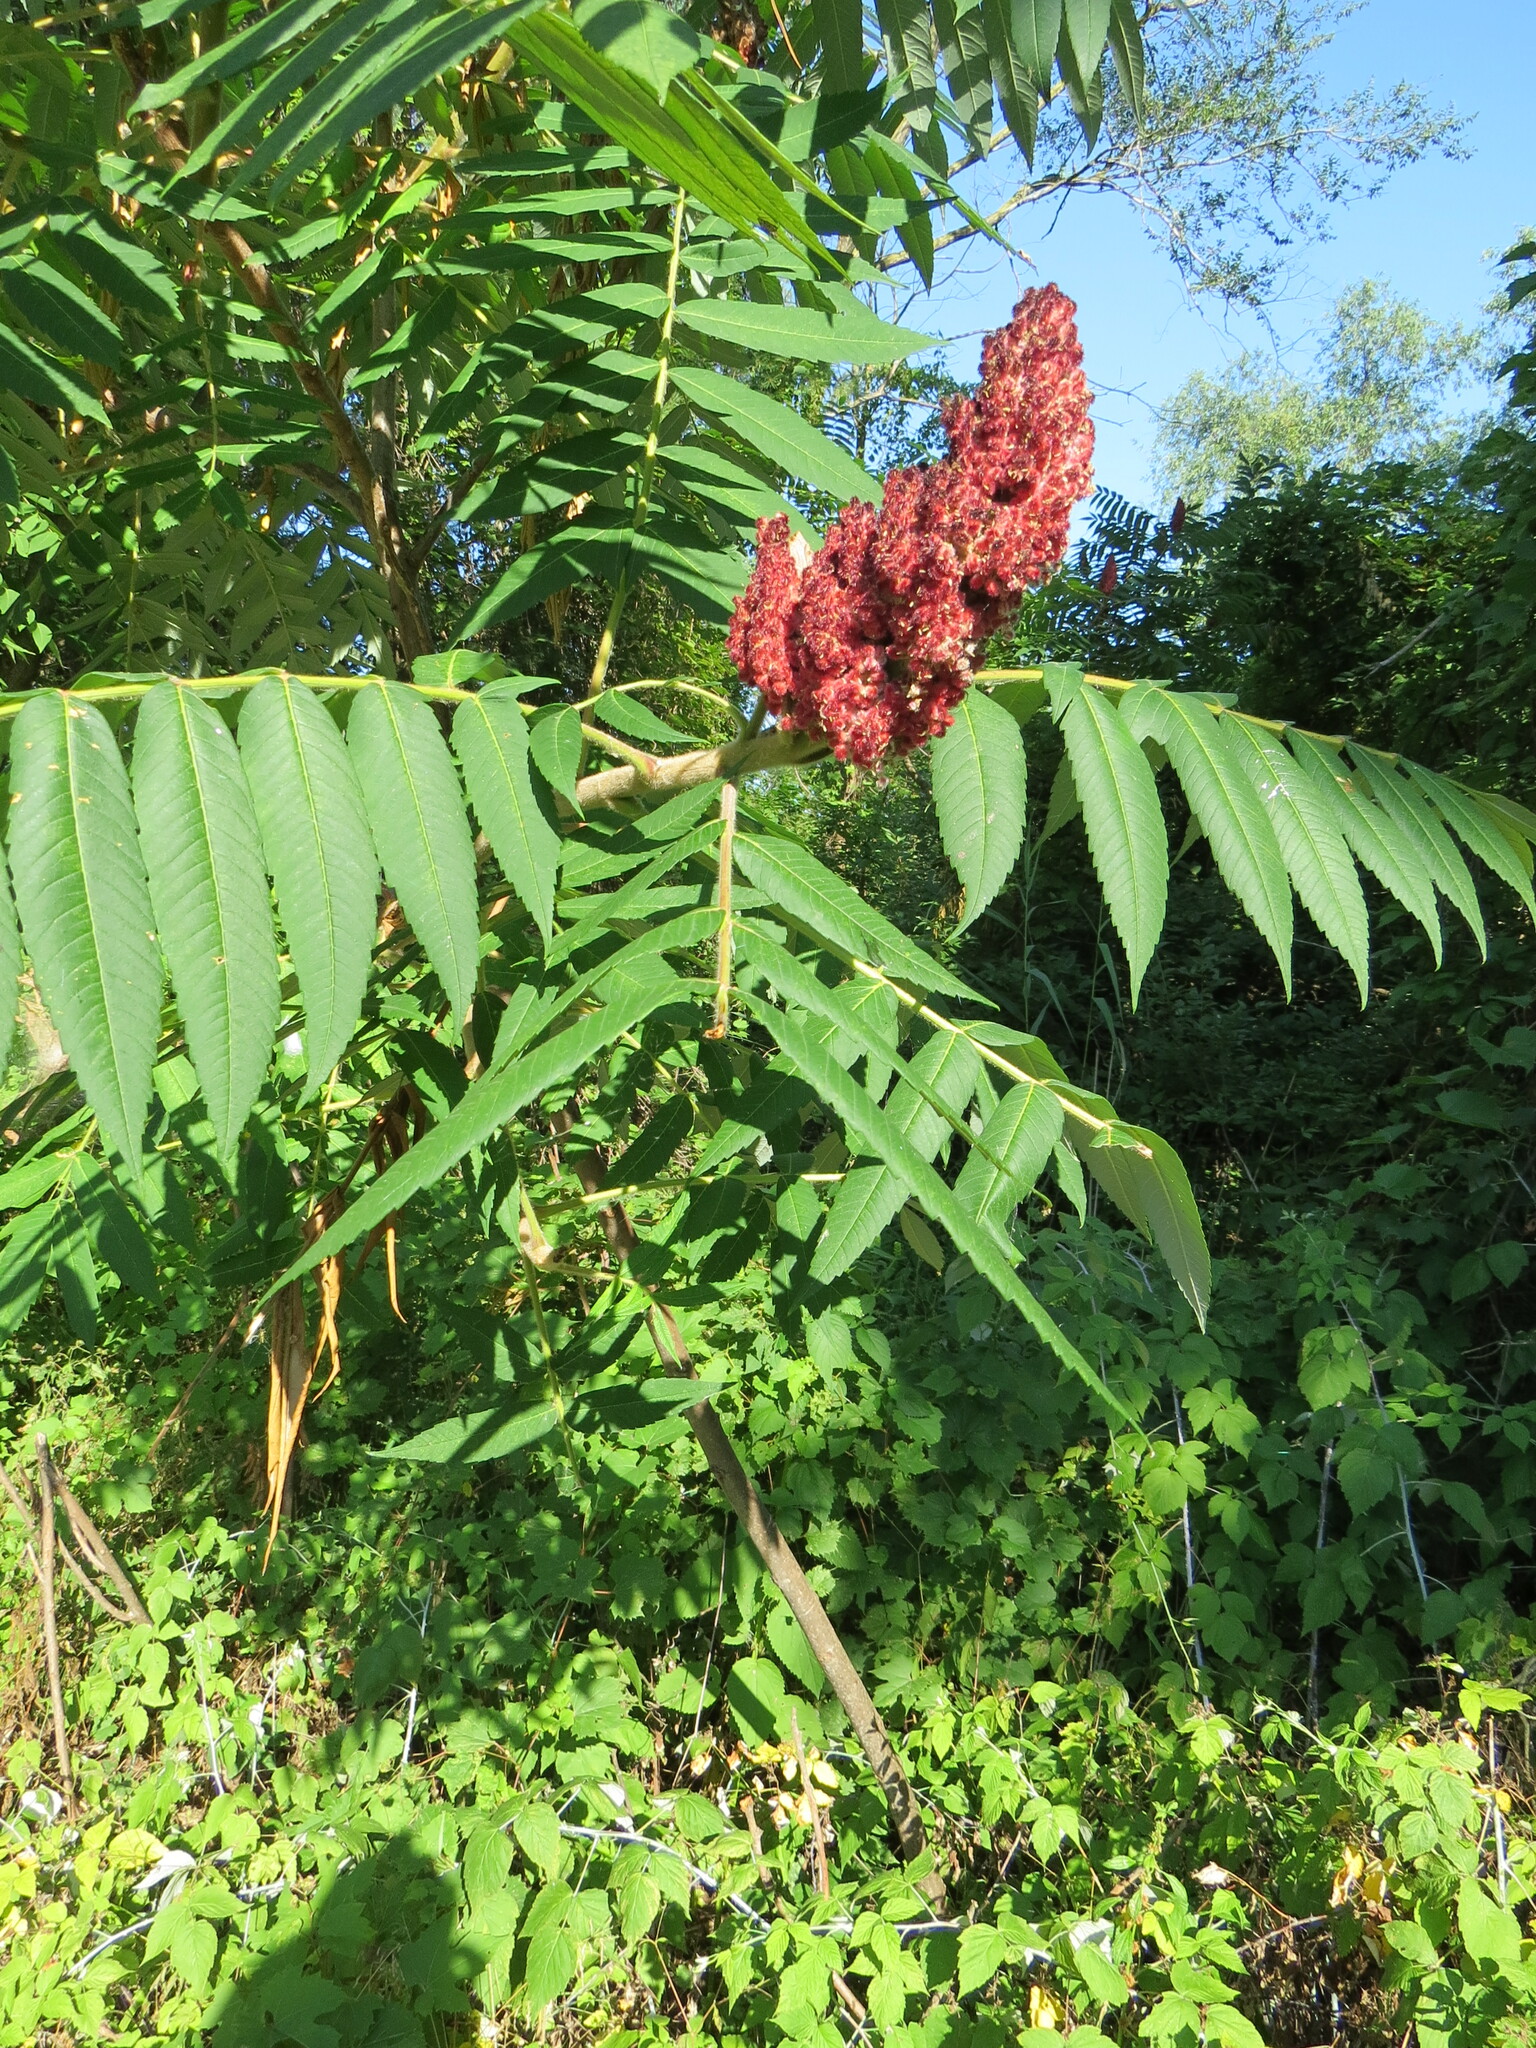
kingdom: Plantae
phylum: Tracheophyta
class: Magnoliopsida
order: Sapindales
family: Anacardiaceae
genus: Rhus
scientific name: Rhus typhina
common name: Staghorn sumac
